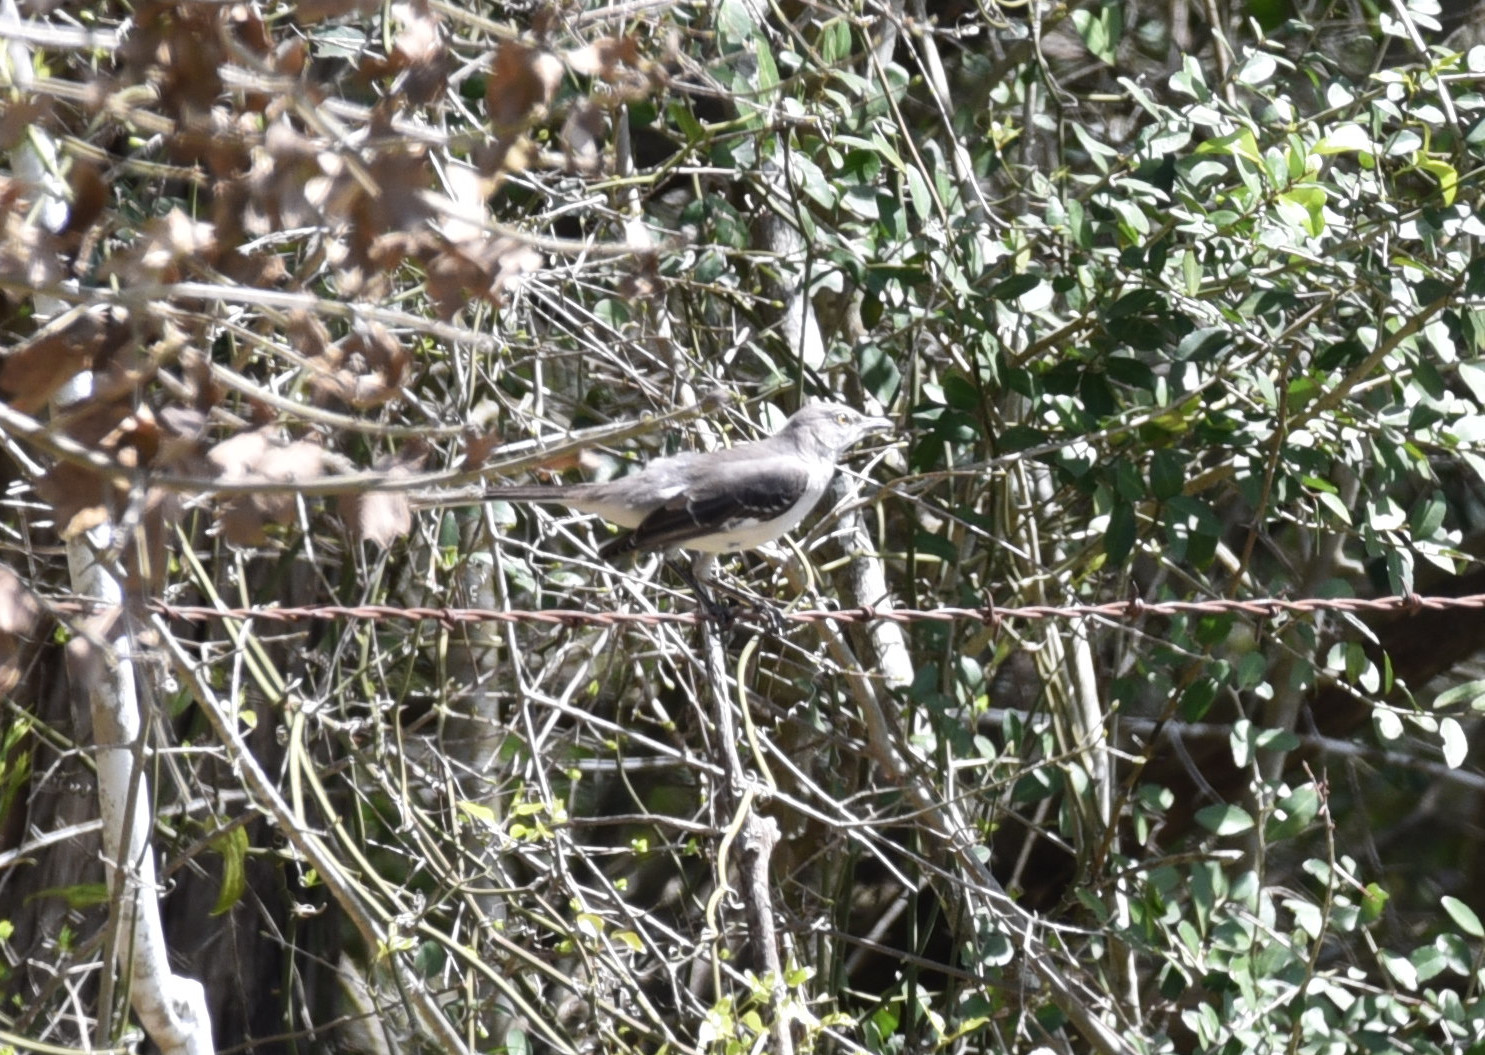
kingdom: Animalia
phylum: Chordata
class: Aves
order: Passeriformes
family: Mimidae
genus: Mimus
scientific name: Mimus polyglottos
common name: Northern mockingbird
